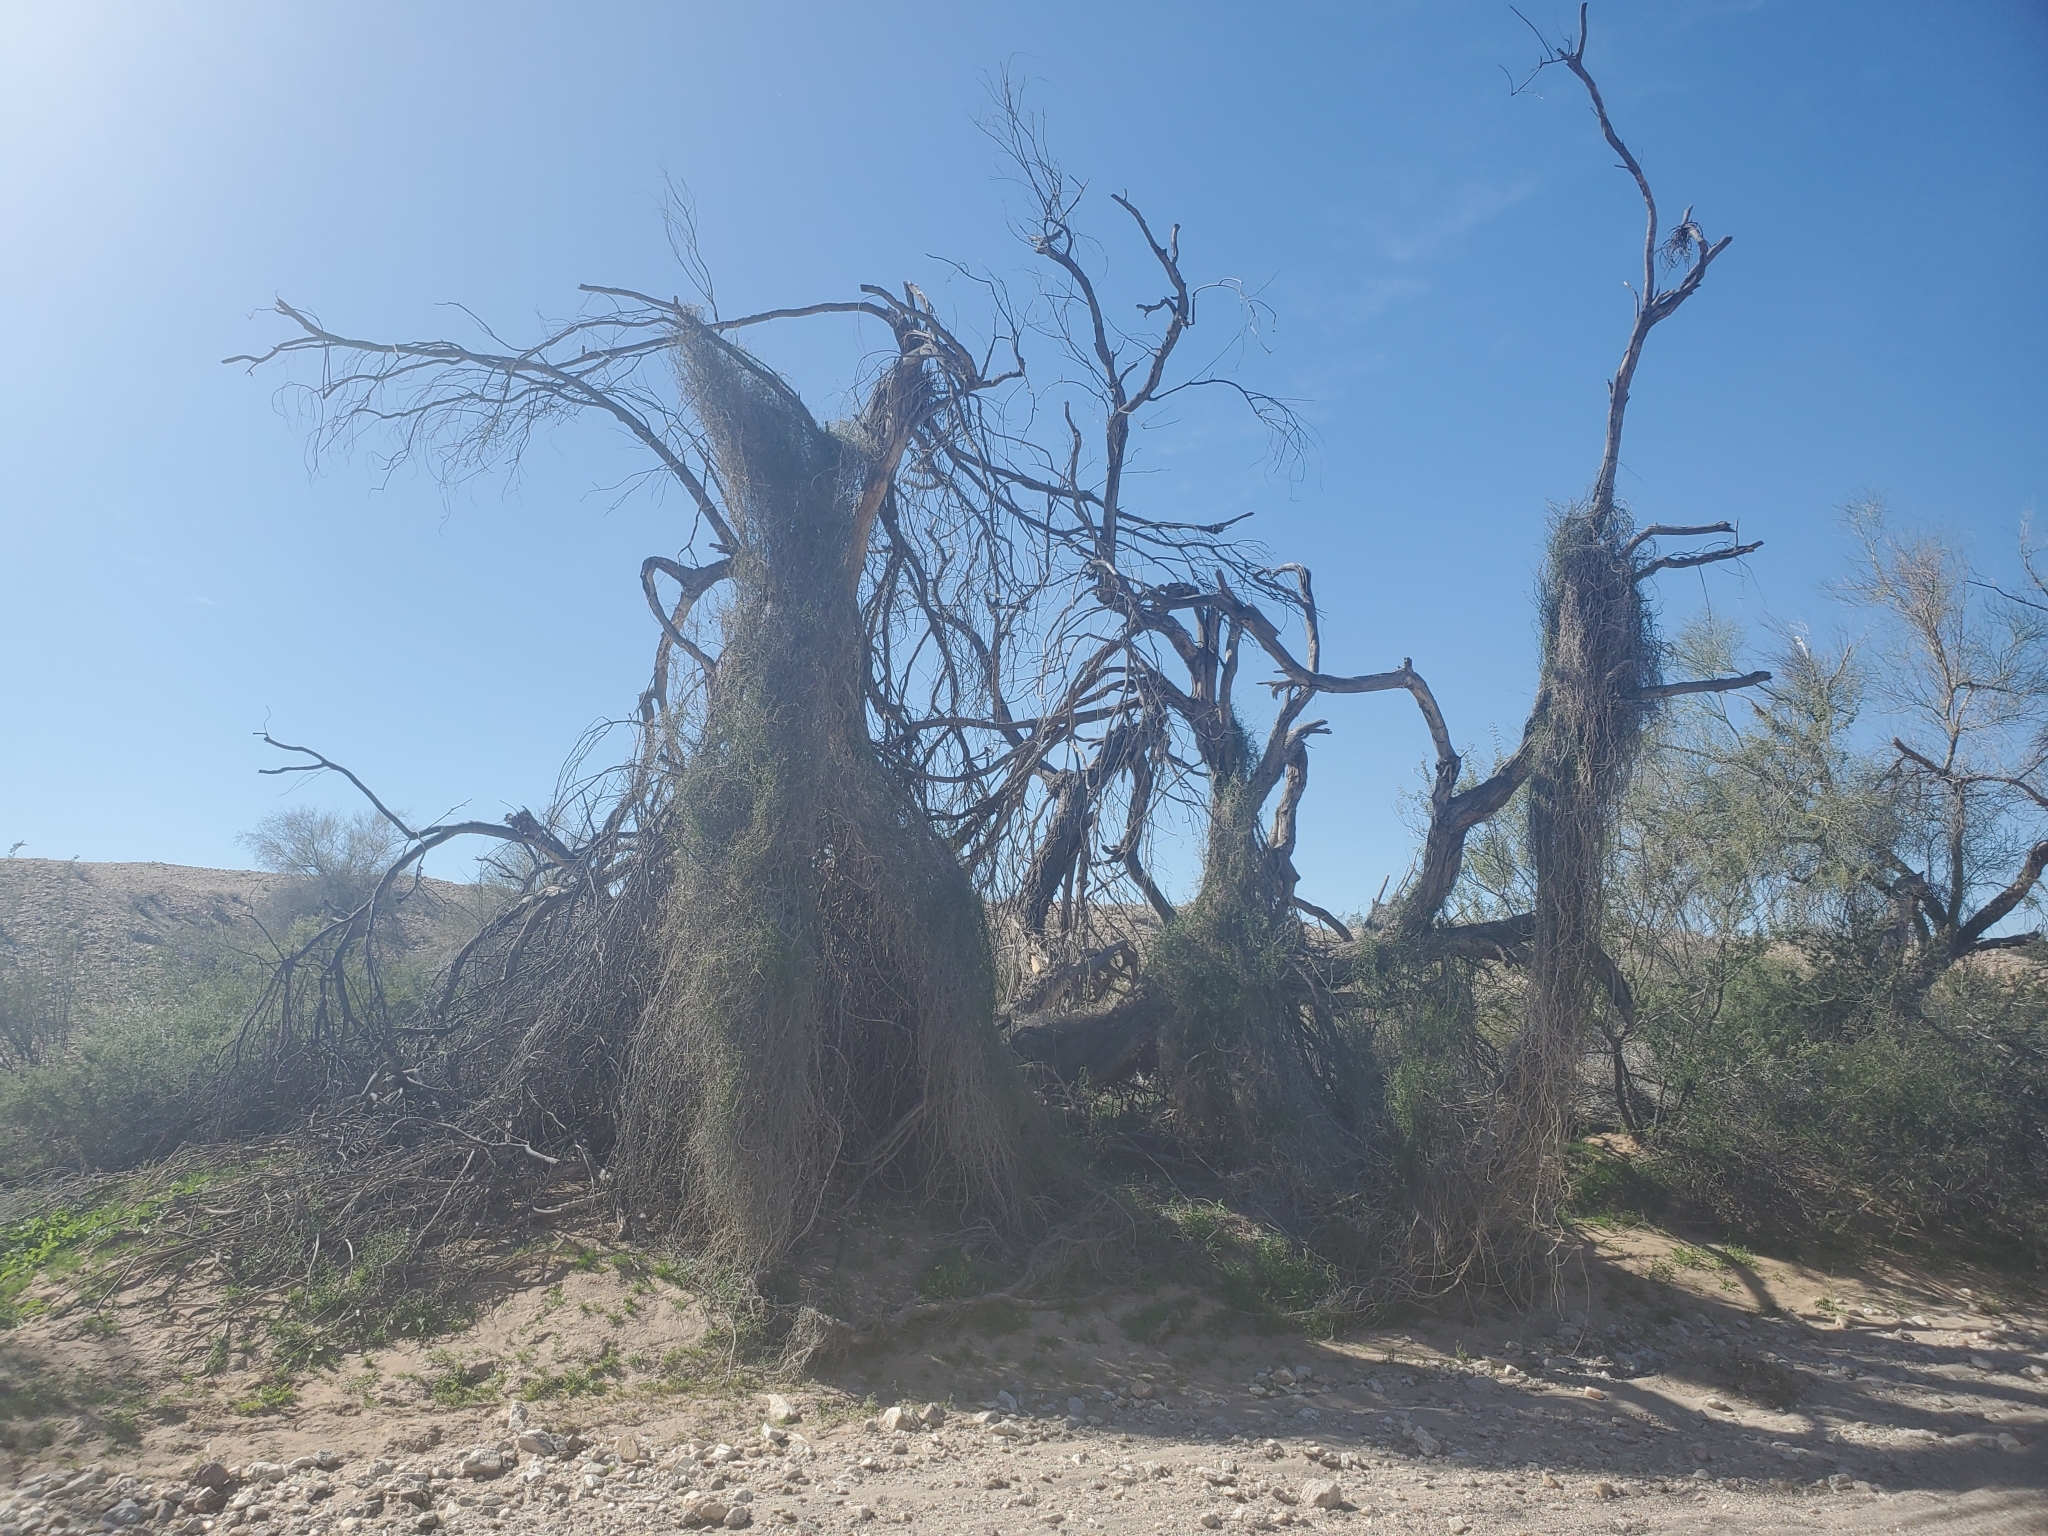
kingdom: Plantae
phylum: Tracheophyta
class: Magnoliopsida
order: Gentianales
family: Apocynaceae
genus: Funastrum
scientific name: Funastrum heterophyllum
